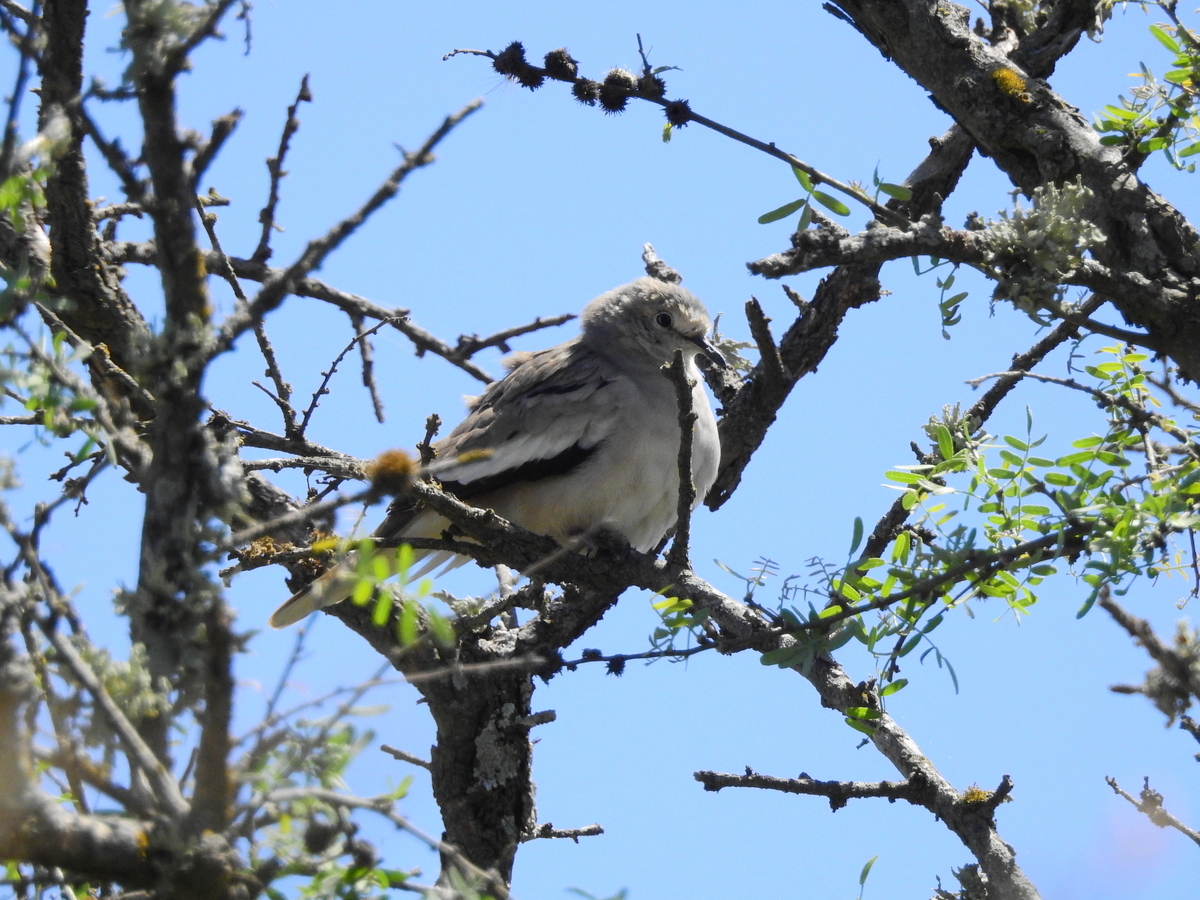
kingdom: Animalia
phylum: Chordata
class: Aves
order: Columbiformes
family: Columbidae
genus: Columbina
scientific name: Columbina picui
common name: Picui ground dove
